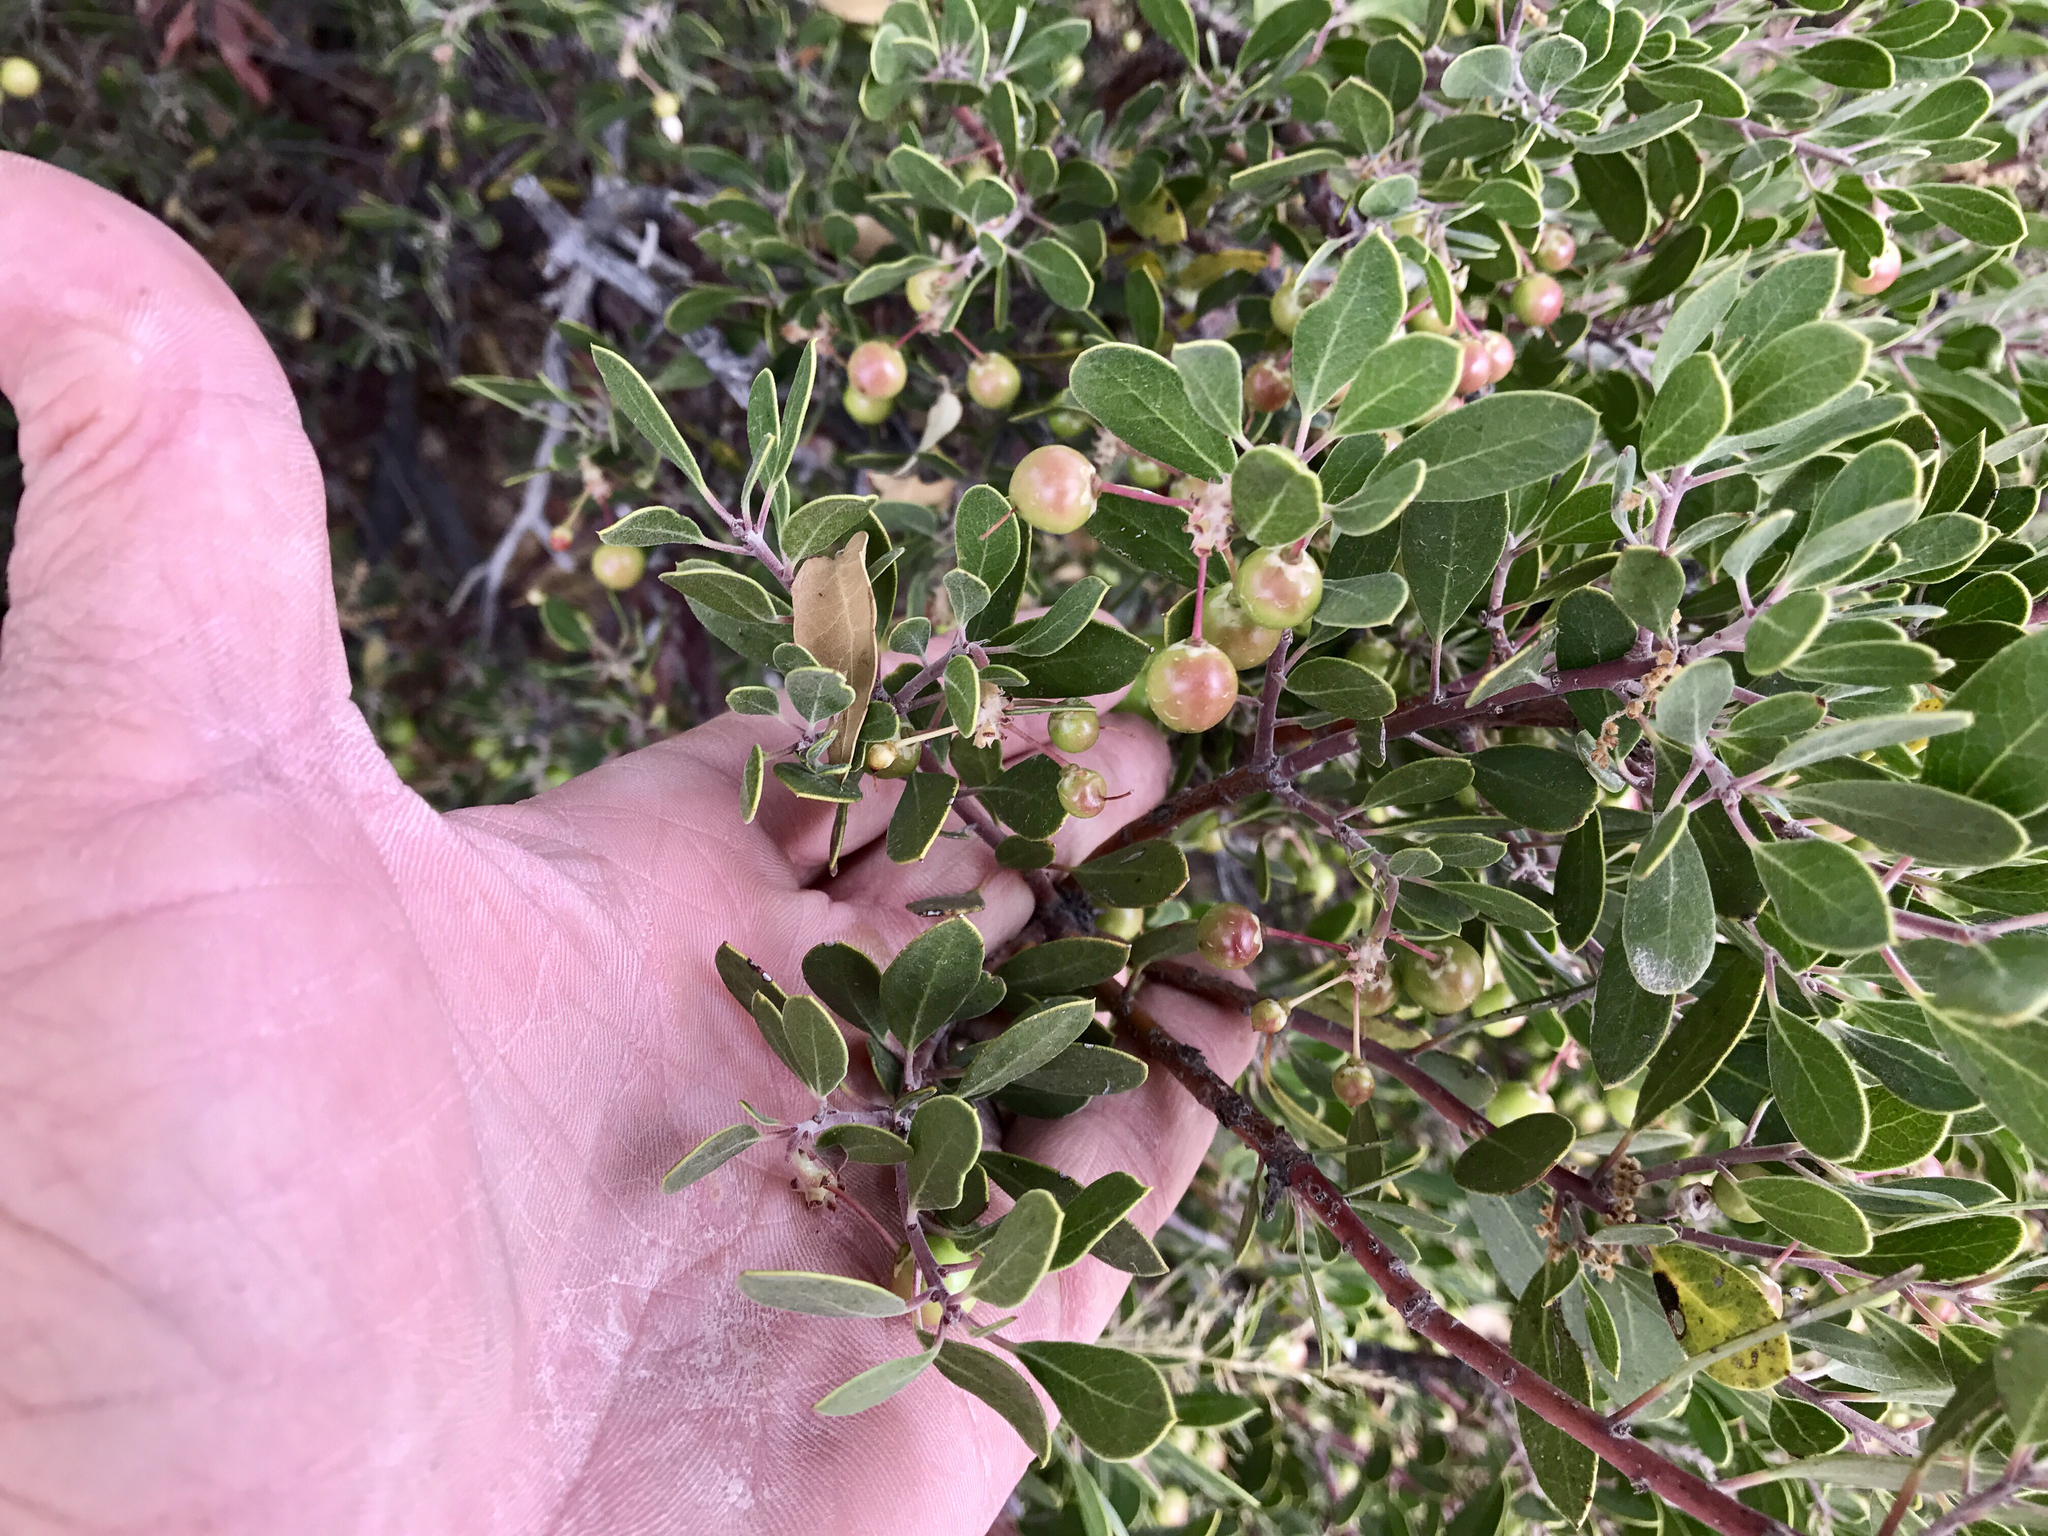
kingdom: Plantae
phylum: Tracheophyta
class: Magnoliopsida
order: Ericales
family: Ericaceae
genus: Arctostaphylos
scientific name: Arctostaphylos pungens
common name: Mexican manzanita
